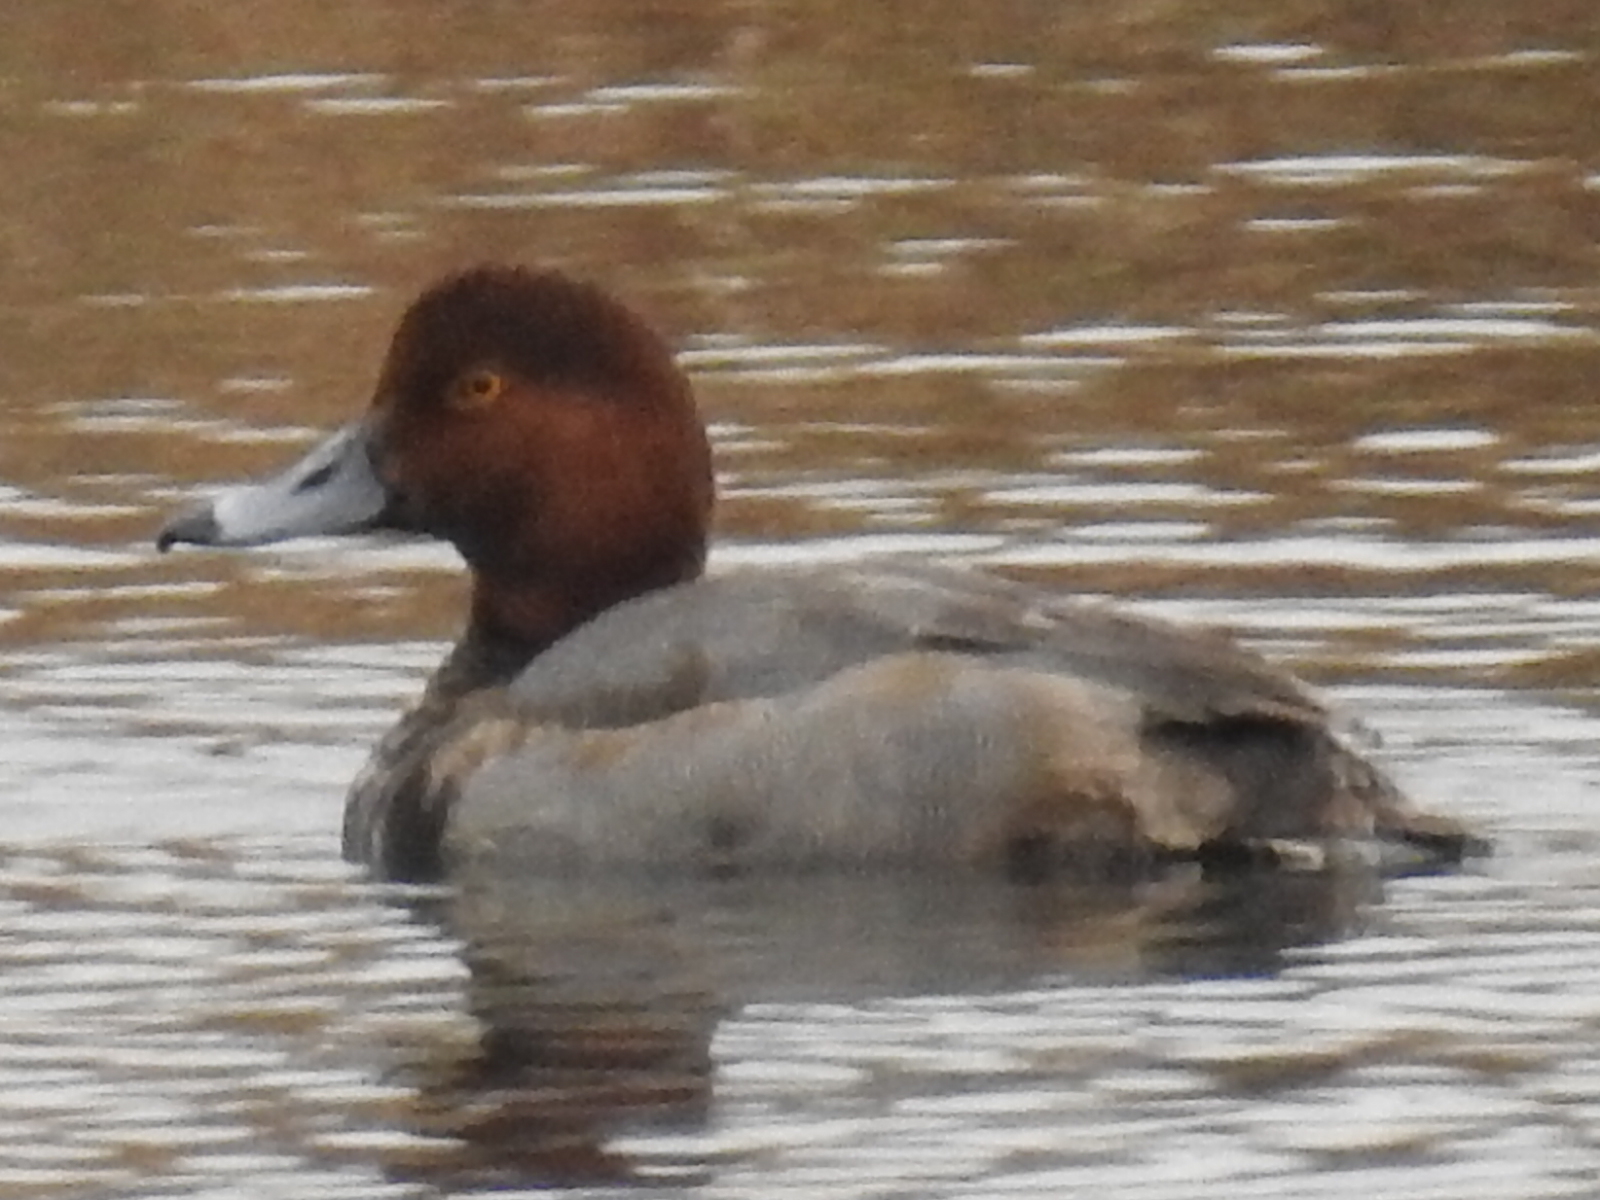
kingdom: Animalia
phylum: Chordata
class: Aves
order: Anseriformes
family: Anatidae
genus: Aythya
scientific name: Aythya americana
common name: Redhead
